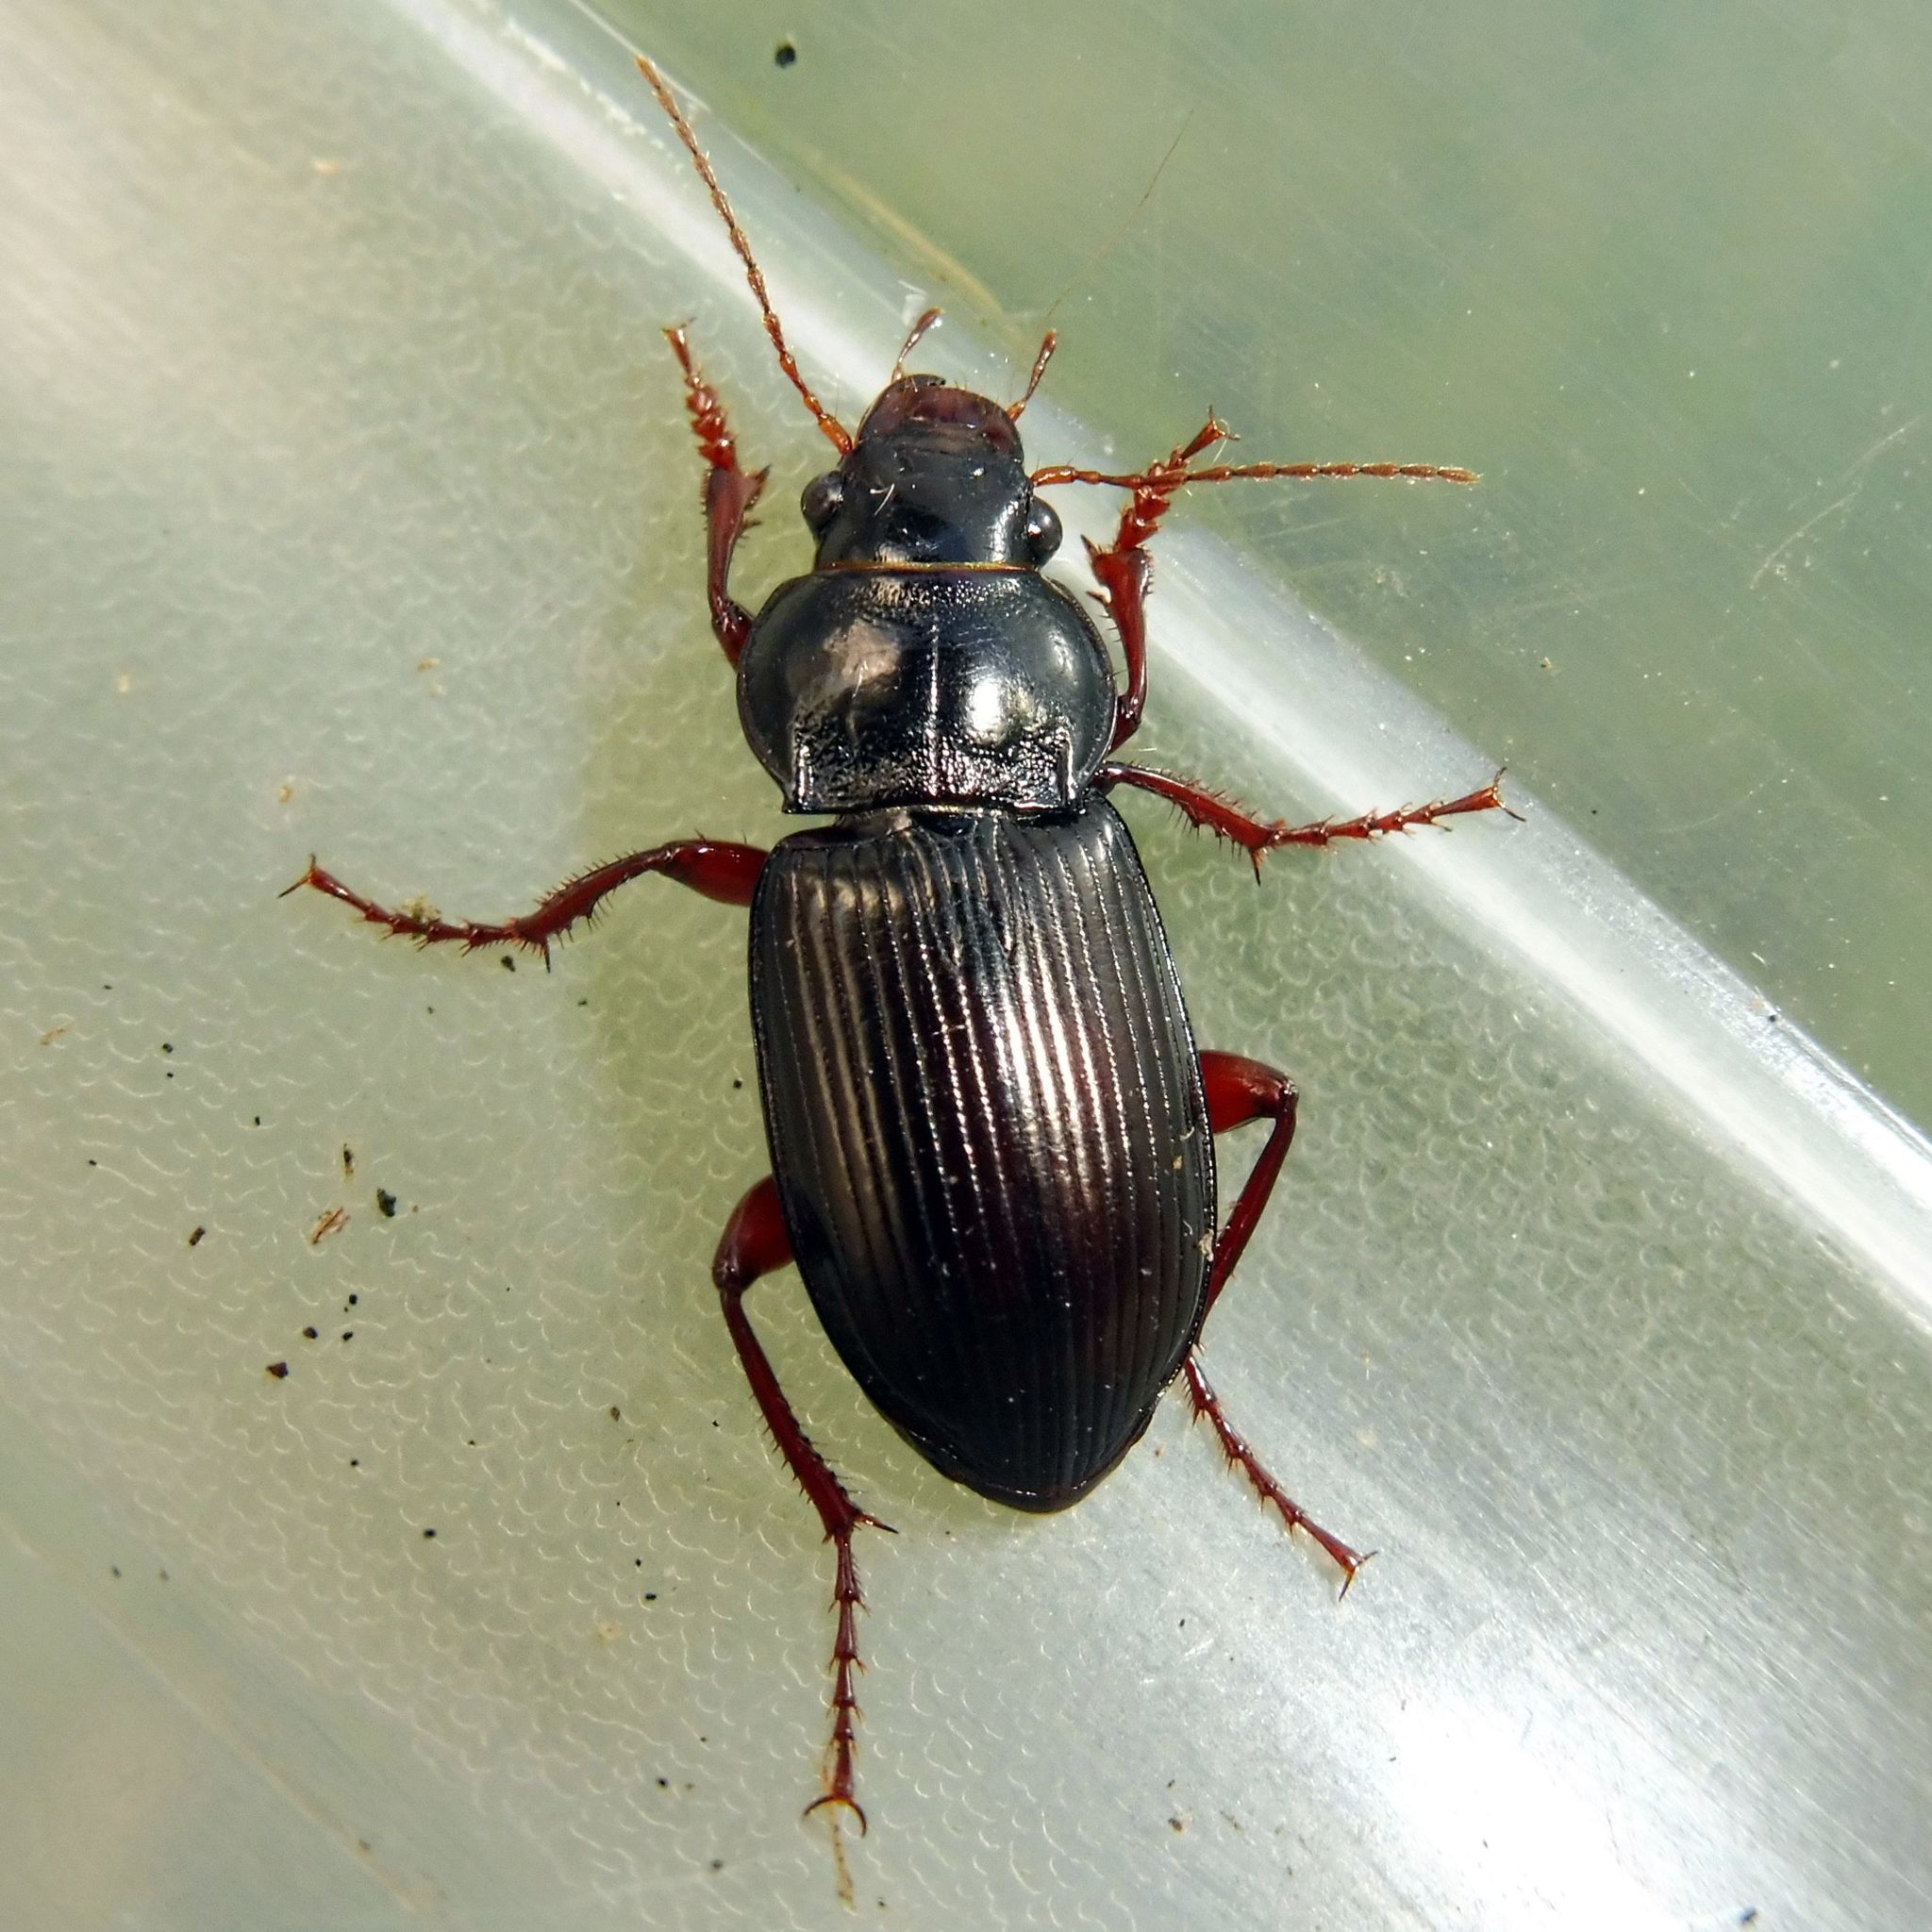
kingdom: Animalia
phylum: Arthropoda
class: Insecta
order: Coleoptera
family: Carabidae
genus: Amara
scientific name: Amara aulica
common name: Princely harp ground beetle
